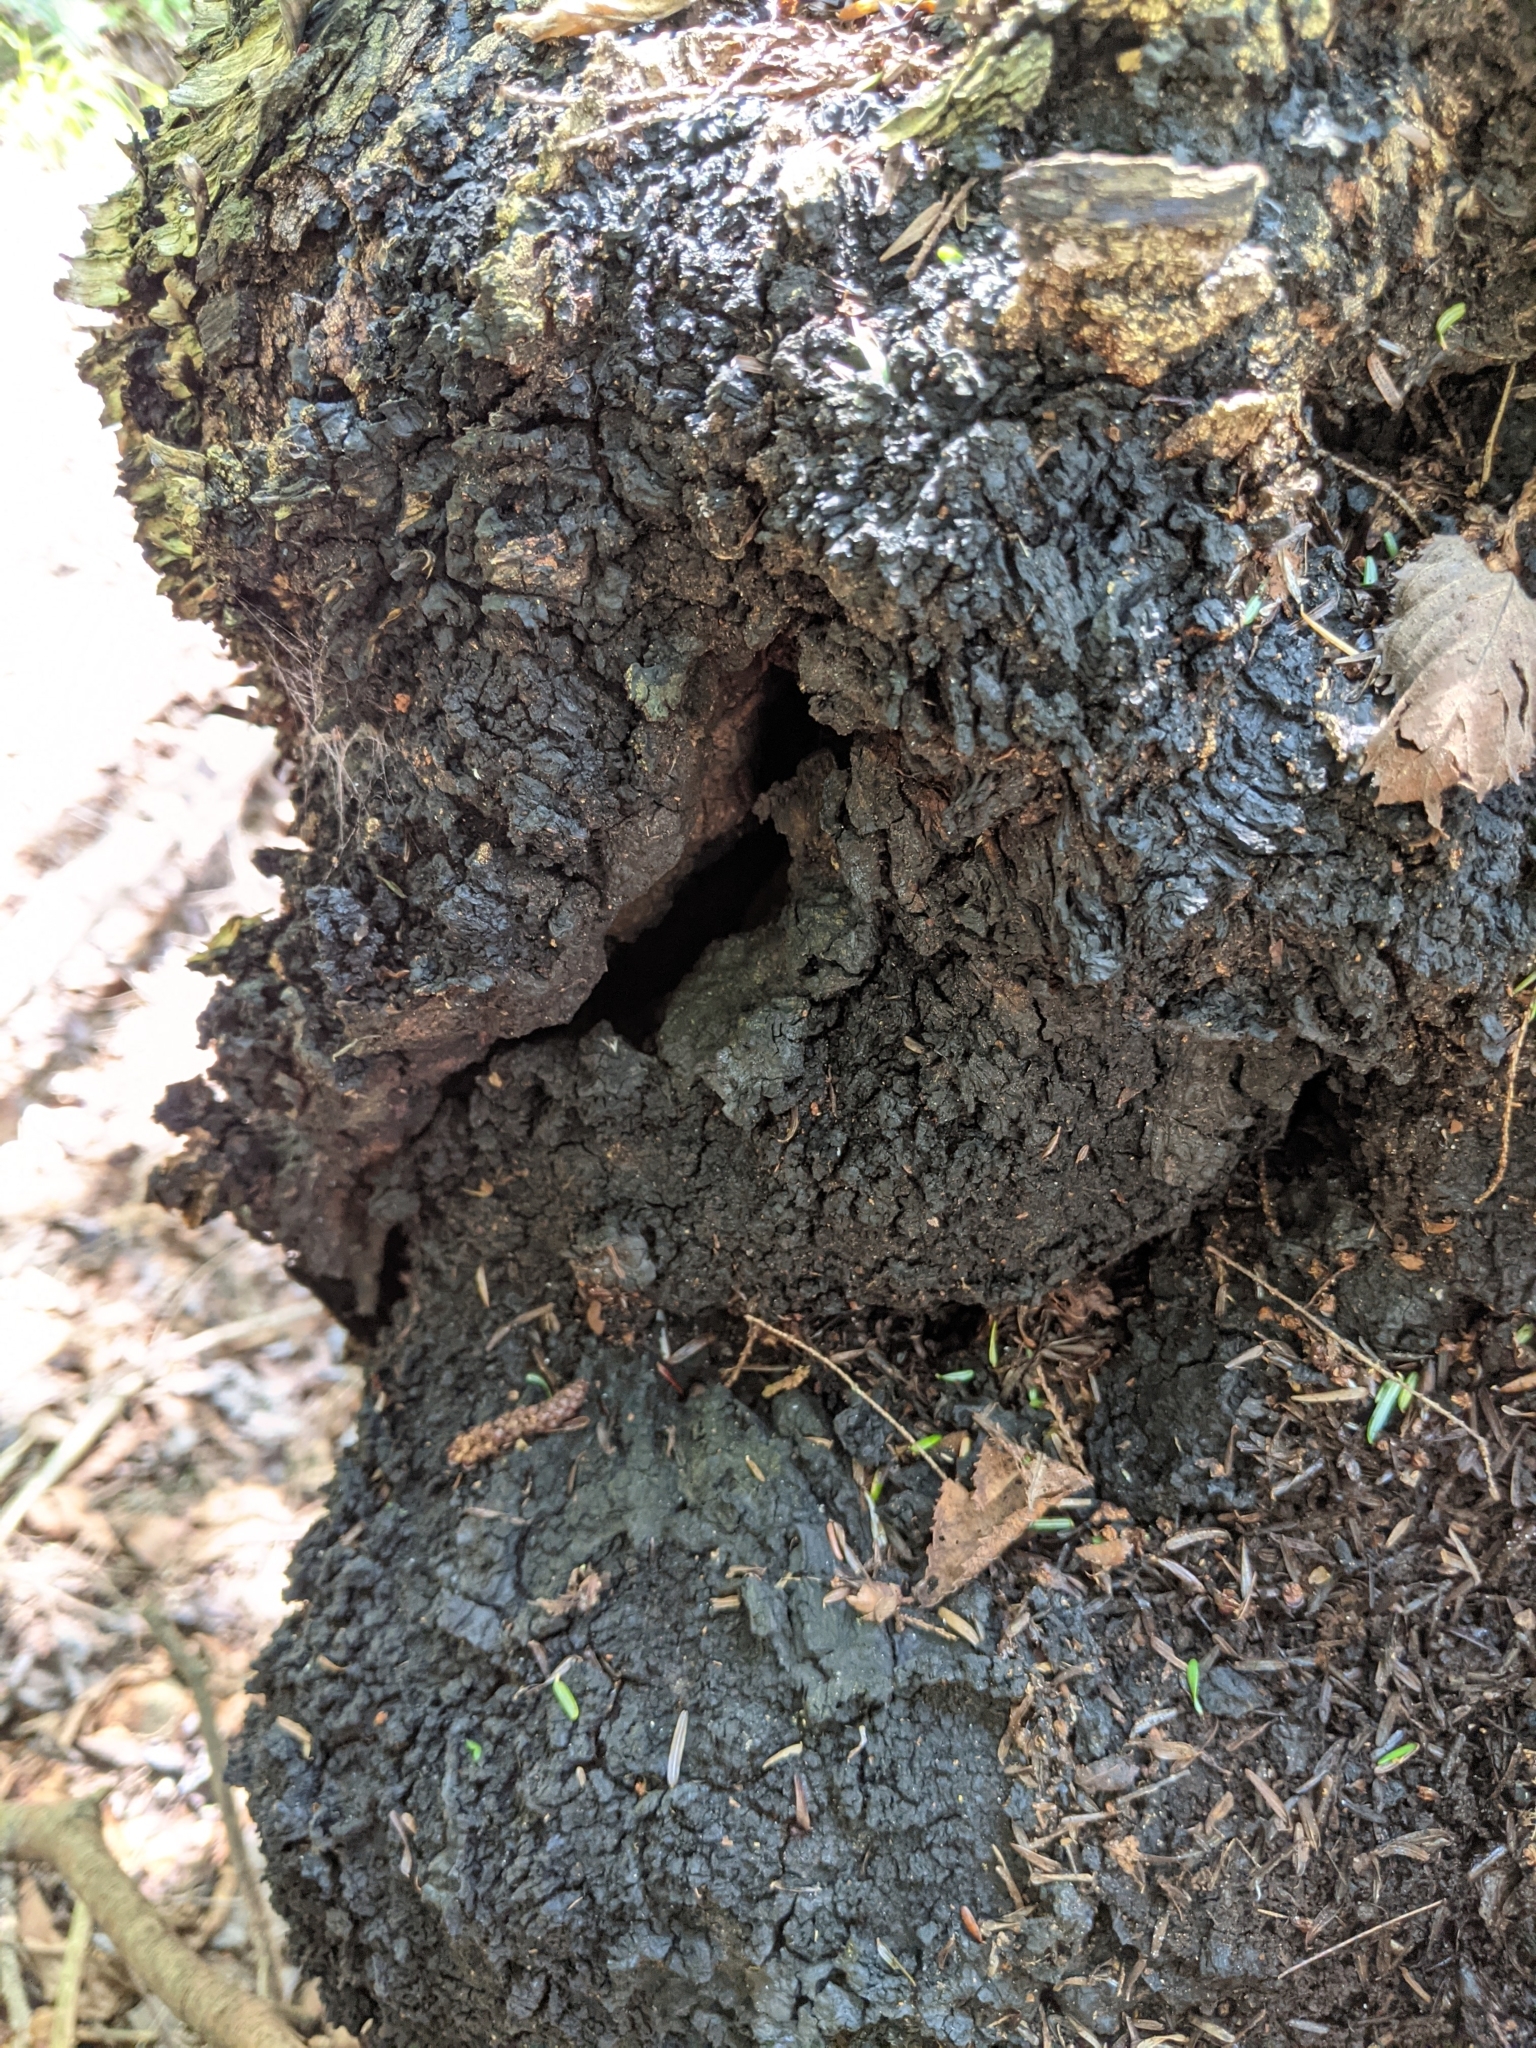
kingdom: Fungi
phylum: Basidiomycota
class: Agaricomycetes
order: Hymenochaetales
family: Hymenochaetaceae
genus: Inonotus
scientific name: Inonotus obliquus
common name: Chaga
